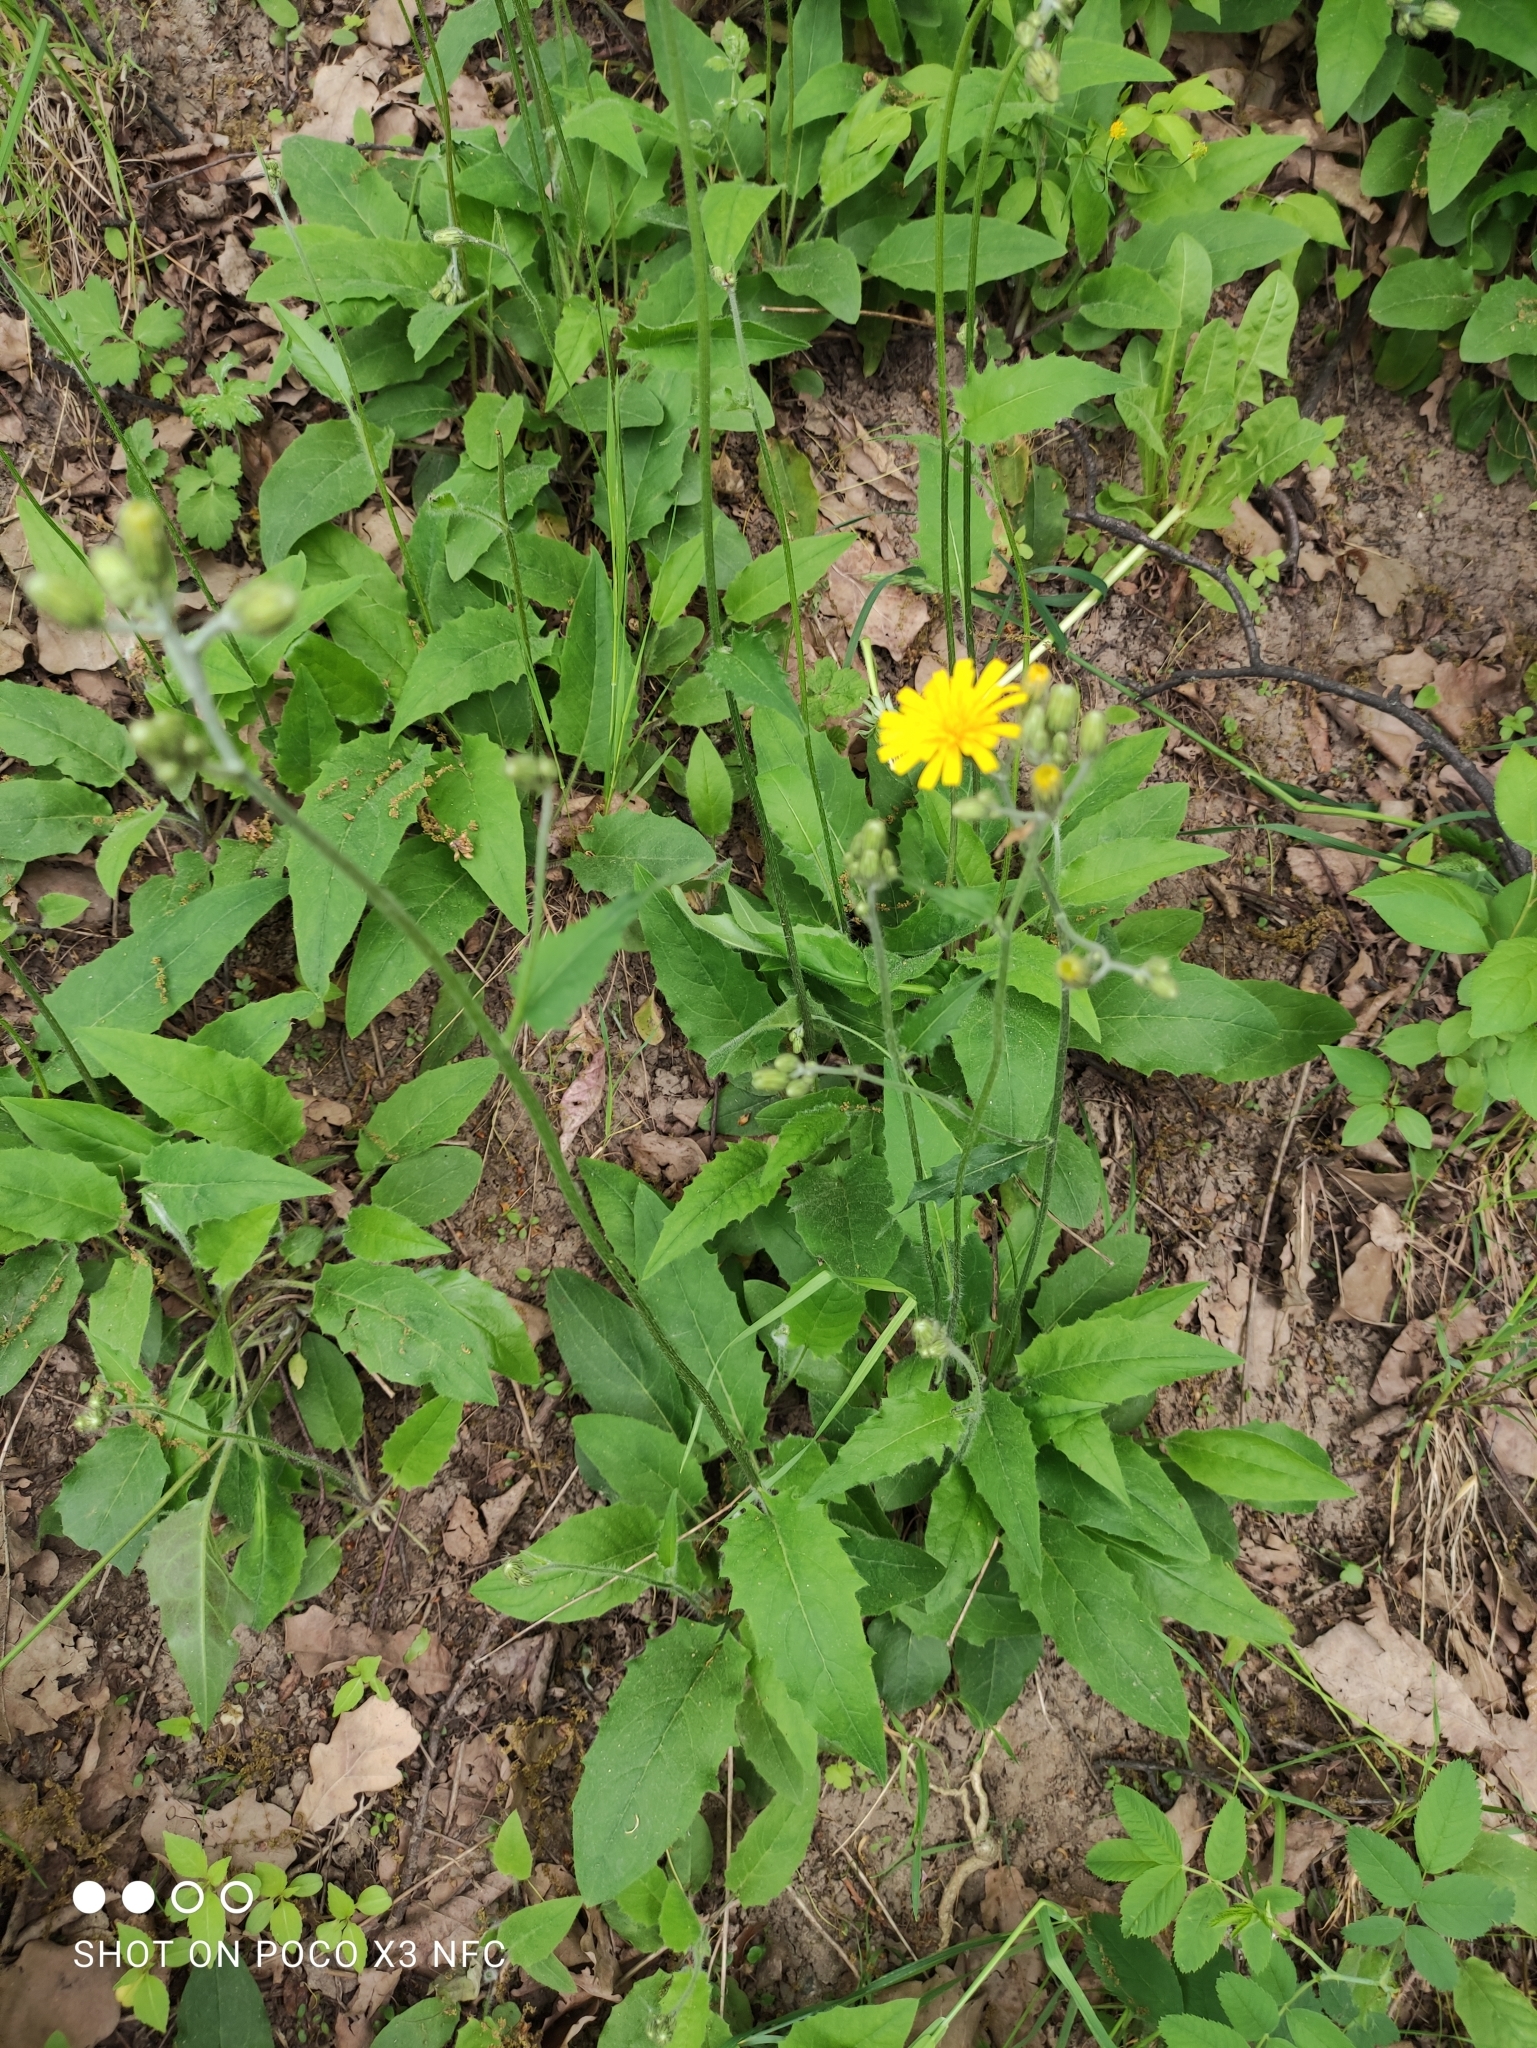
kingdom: Plantae
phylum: Tracheophyta
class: Magnoliopsida
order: Asterales
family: Asteraceae
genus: Hieracium
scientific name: Hieracium murorum
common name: Wall hawkweed
